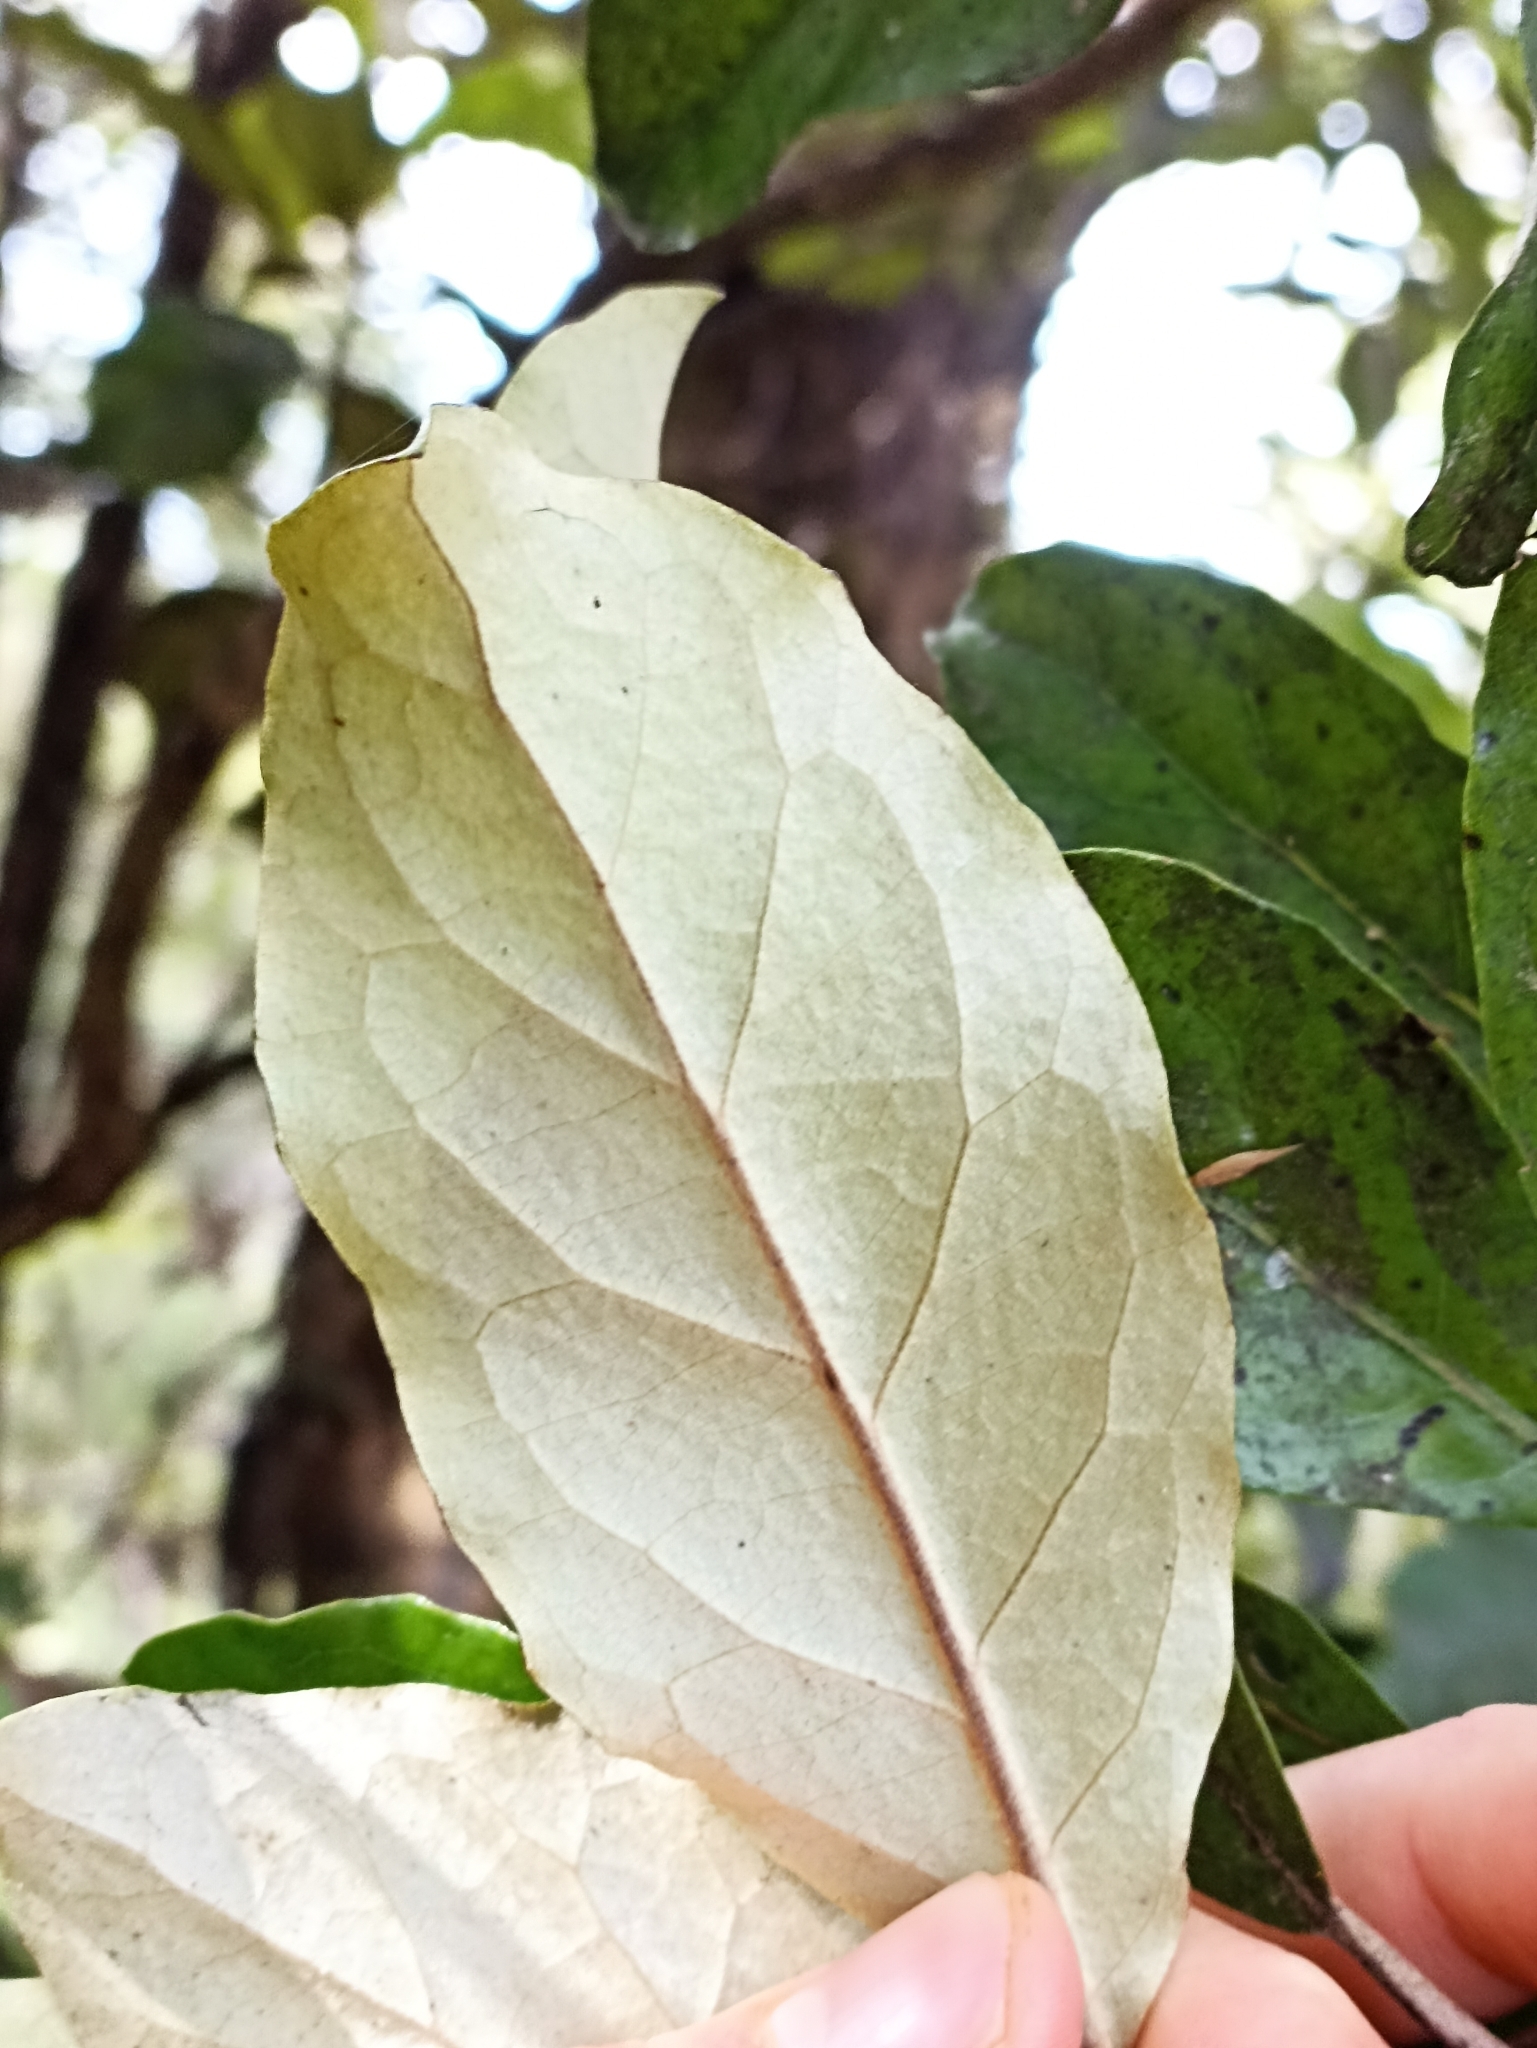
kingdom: Plantae
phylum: Tracheophyta
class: Magnoliopsida
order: Asterales
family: Asteraceae
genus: Olearia
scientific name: Olearia furfuracea
